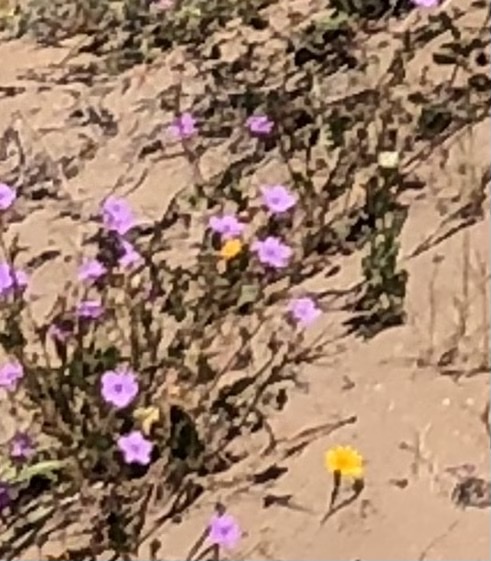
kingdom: Plantae
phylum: Tracheophyta
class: Magnoliopsida
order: Geraniales
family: Geraniaceae
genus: Erodium
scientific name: Erodium hesperium
